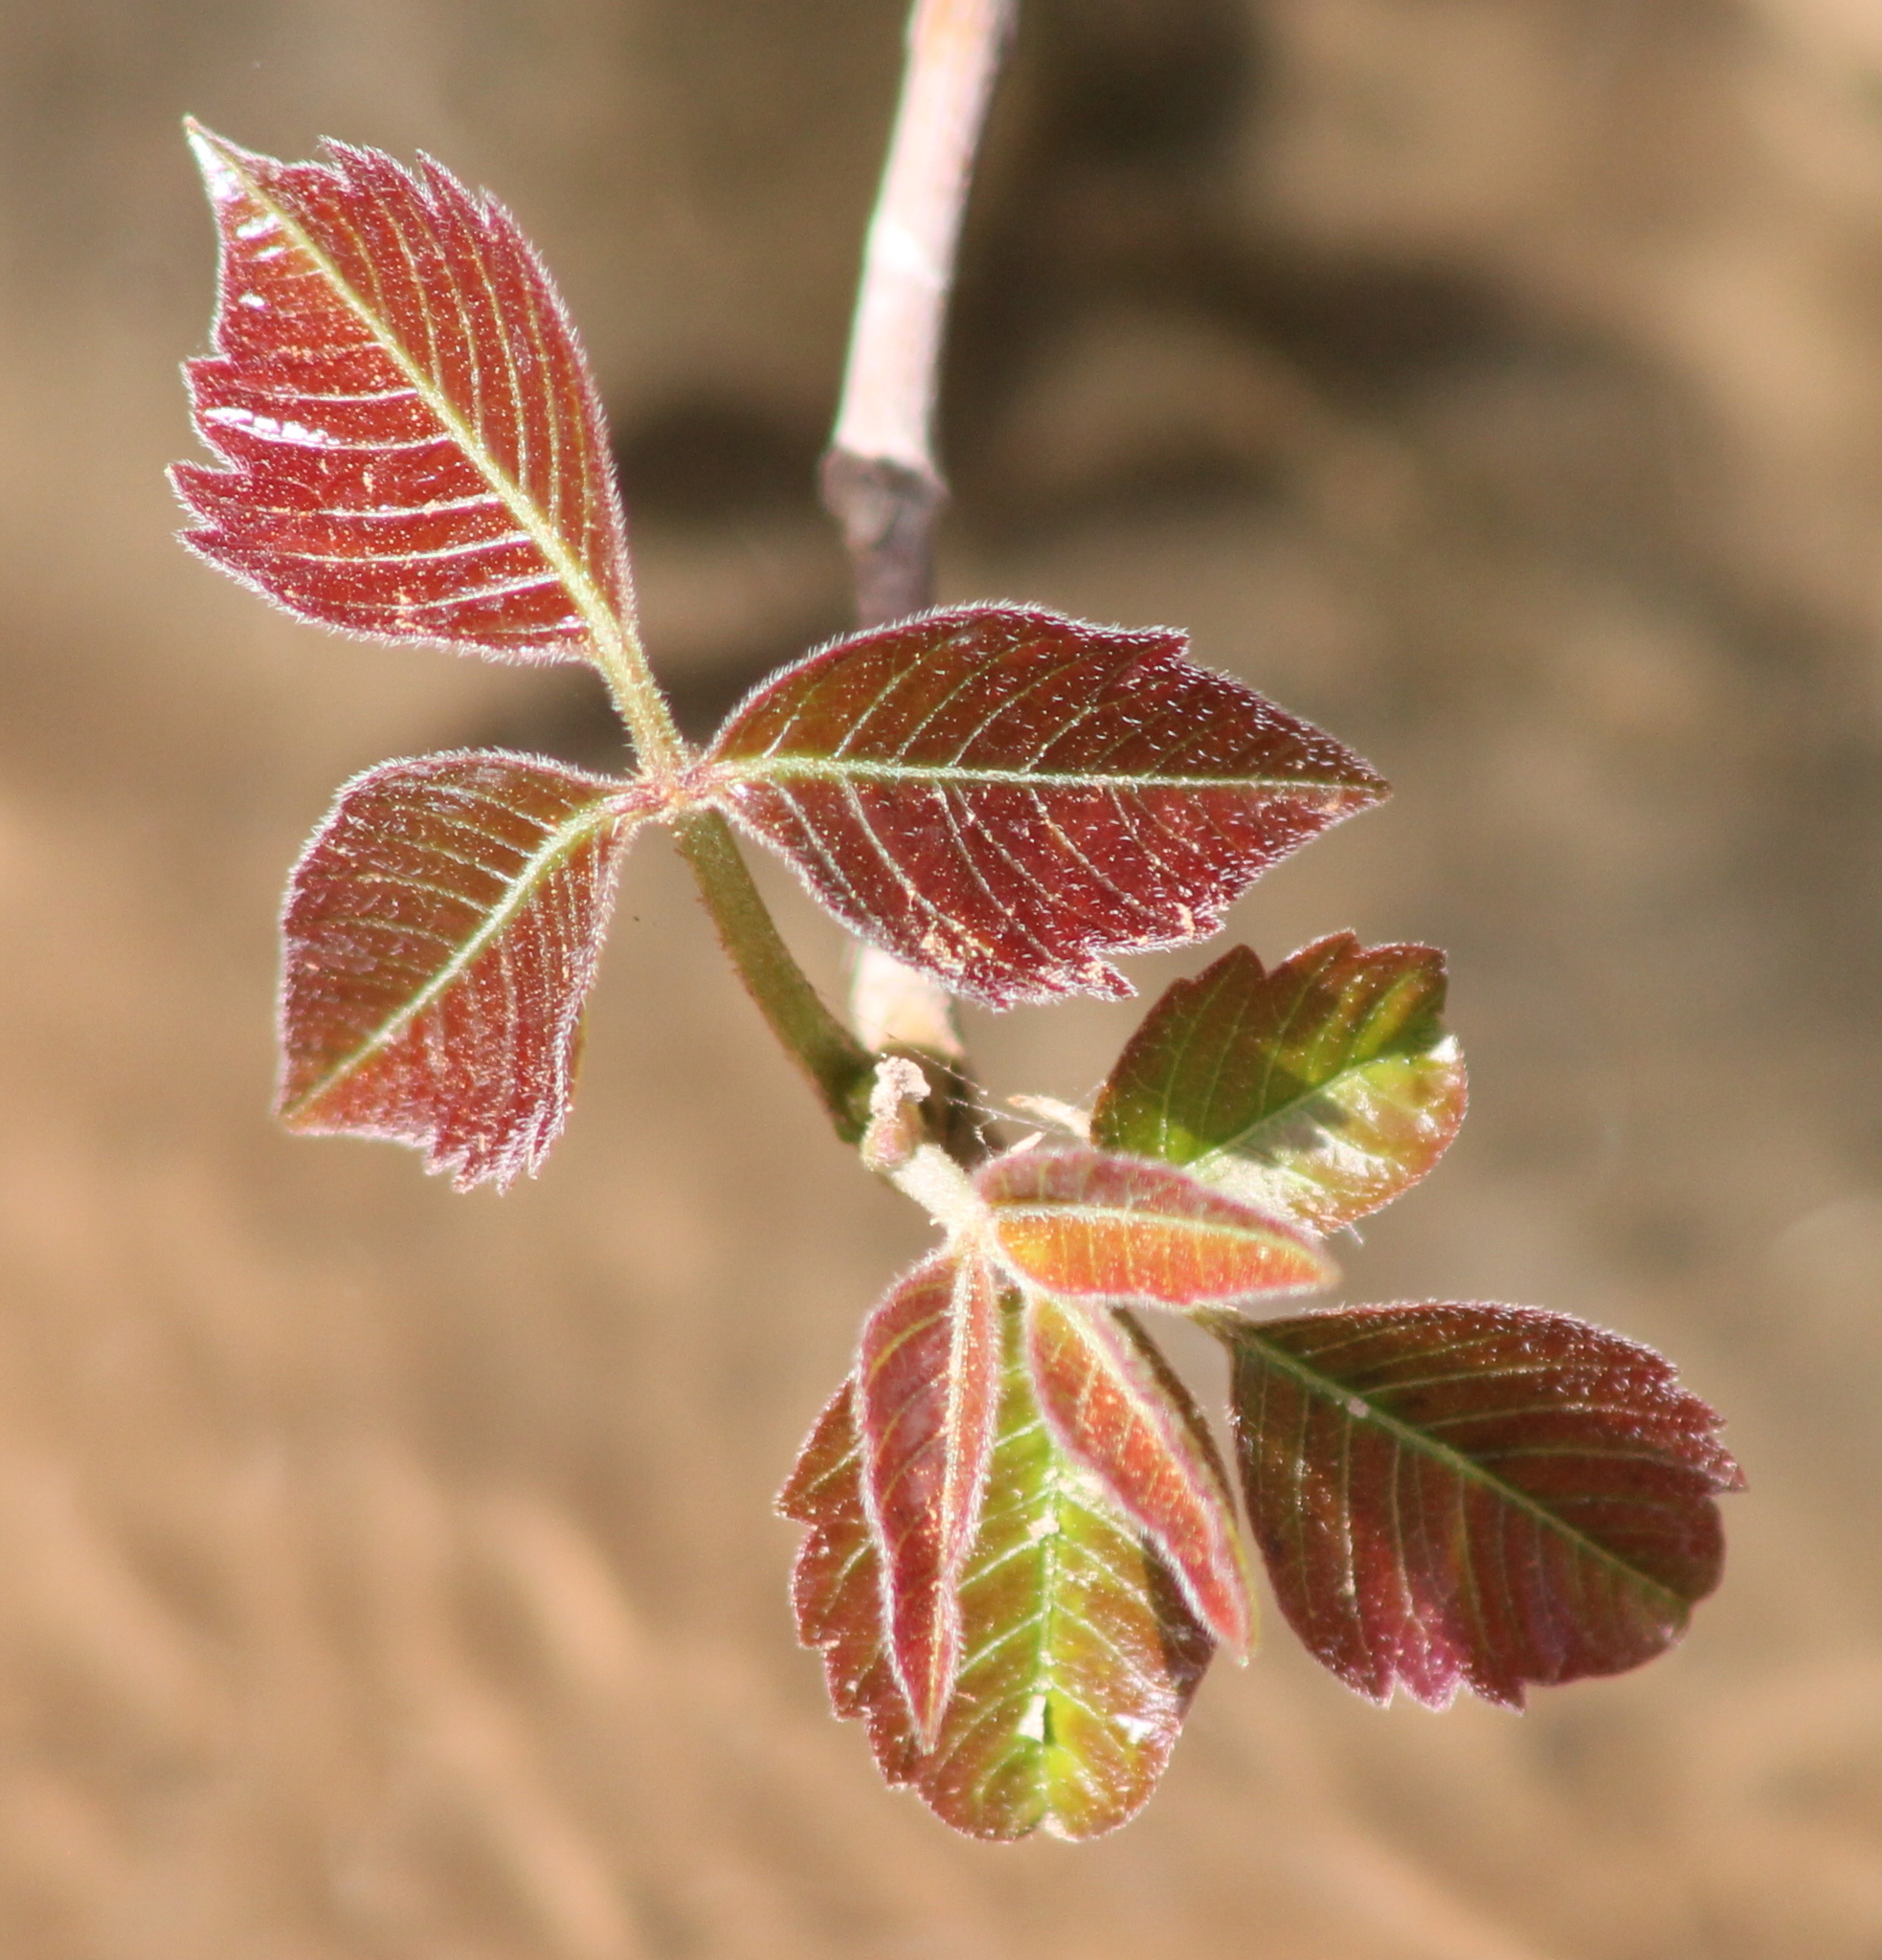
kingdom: Plantae
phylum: Tracheophyta
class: Magnoliopsida
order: Sapindales
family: Anacardiaceae
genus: Toxicodendron
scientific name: Toxicodendron radicans
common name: Poison ivy
